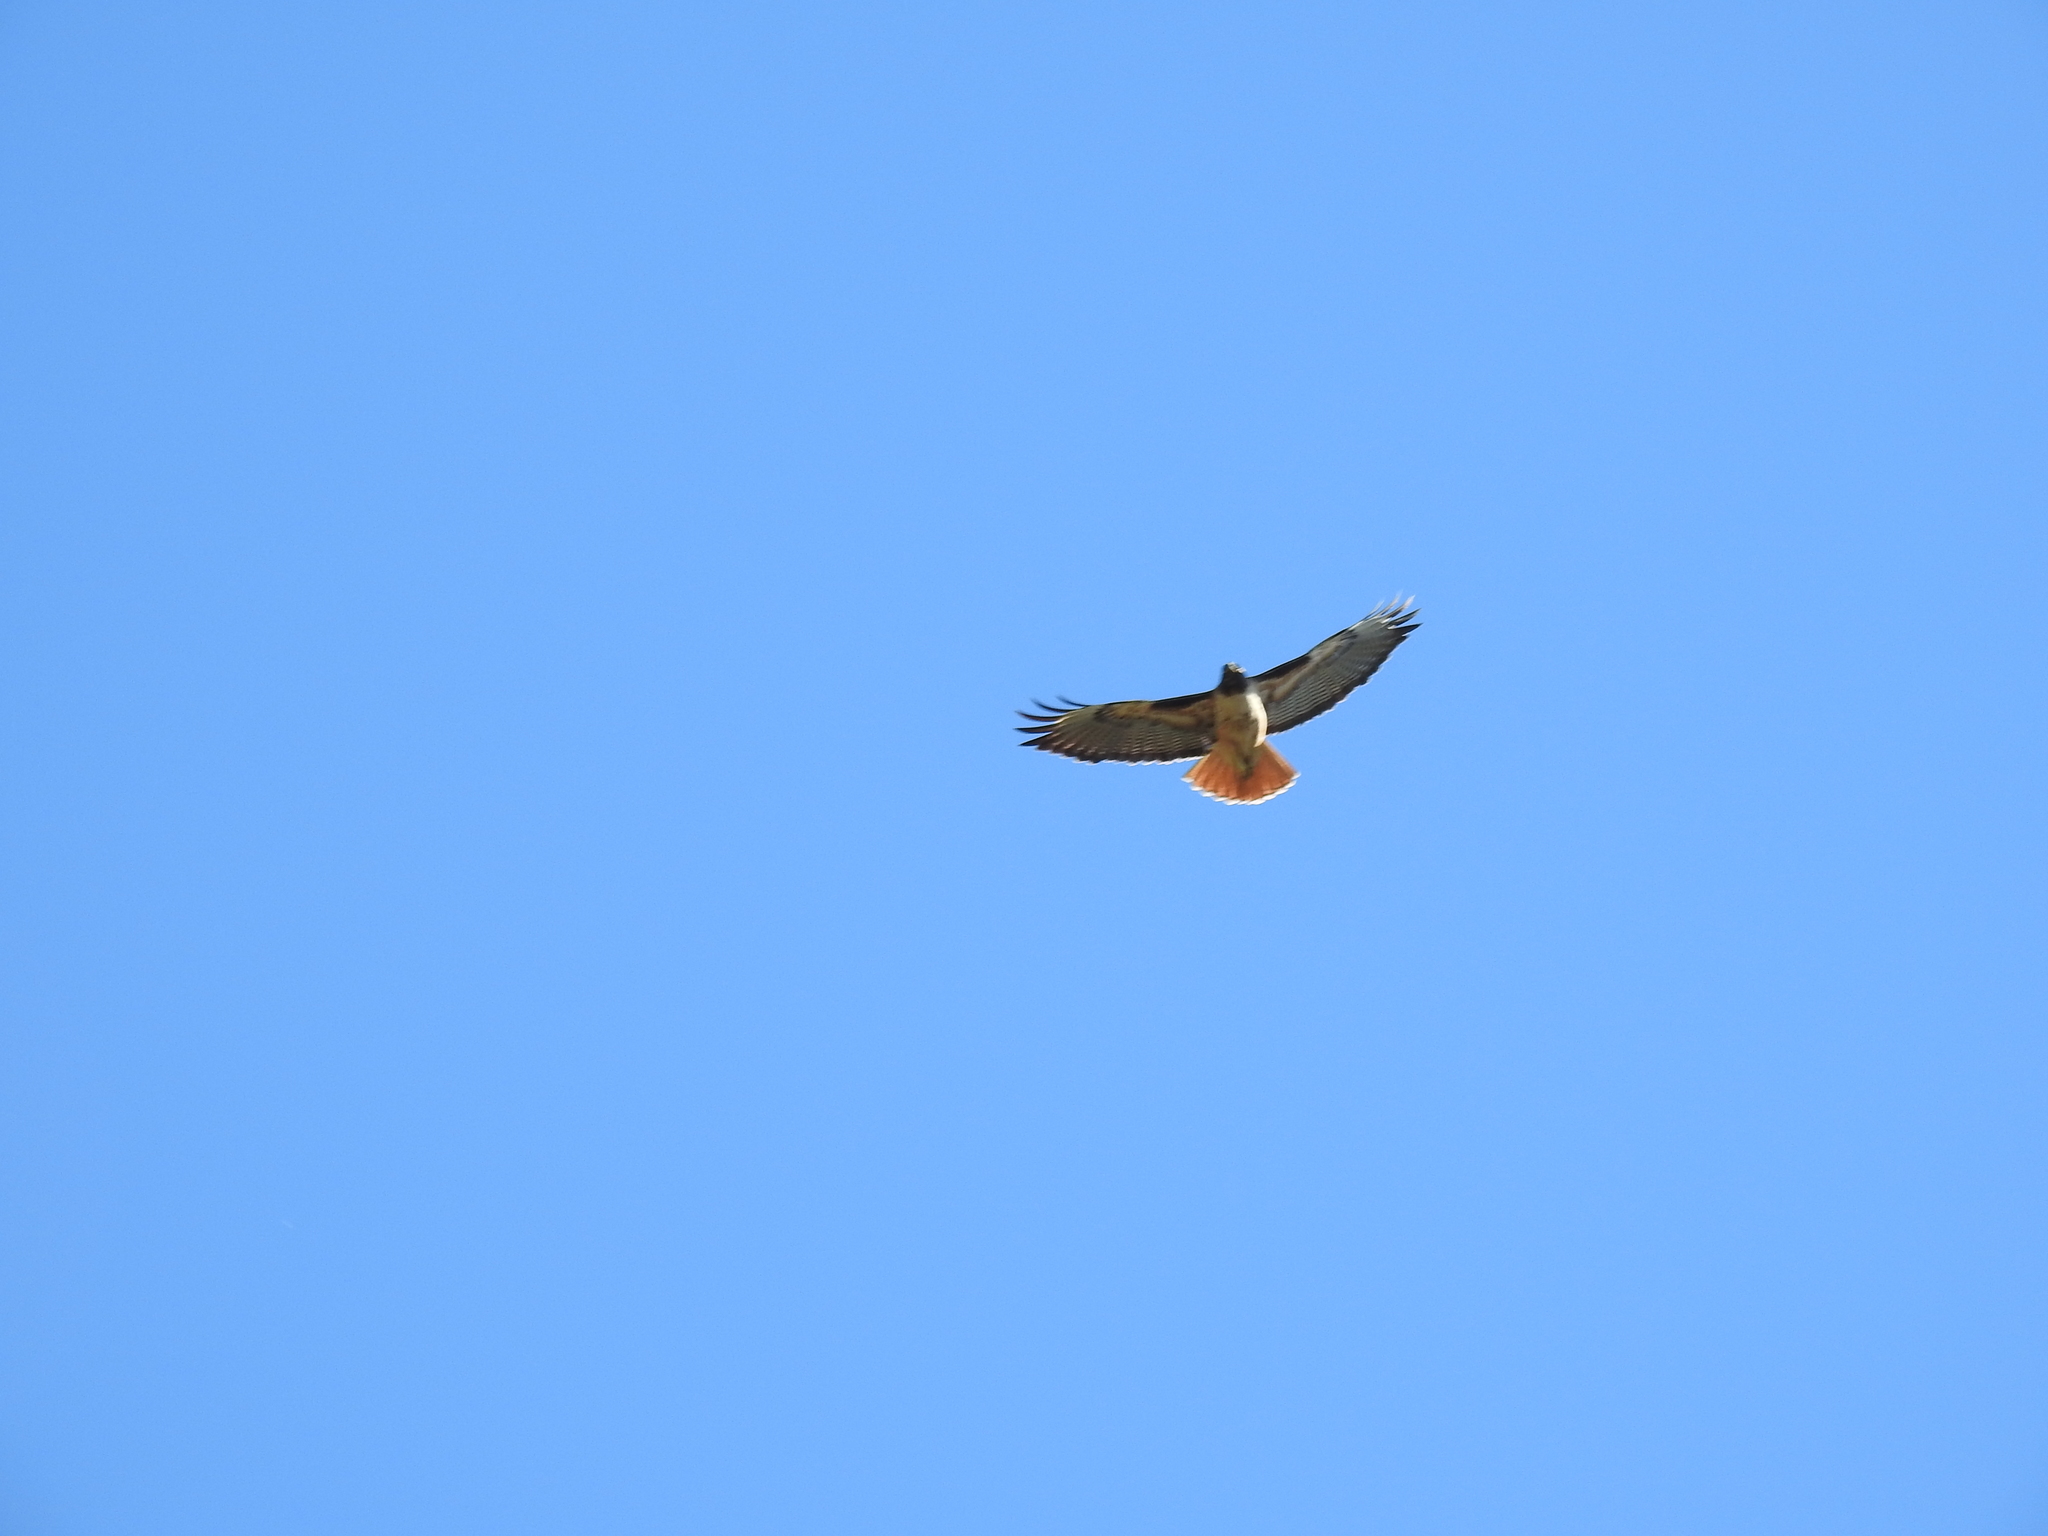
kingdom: Animalia
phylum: Chordata
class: Aves
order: Accipitriformes
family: Accipitridae
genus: Buteo
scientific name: Buteo jamaicensis
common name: Red-tailed hawk
